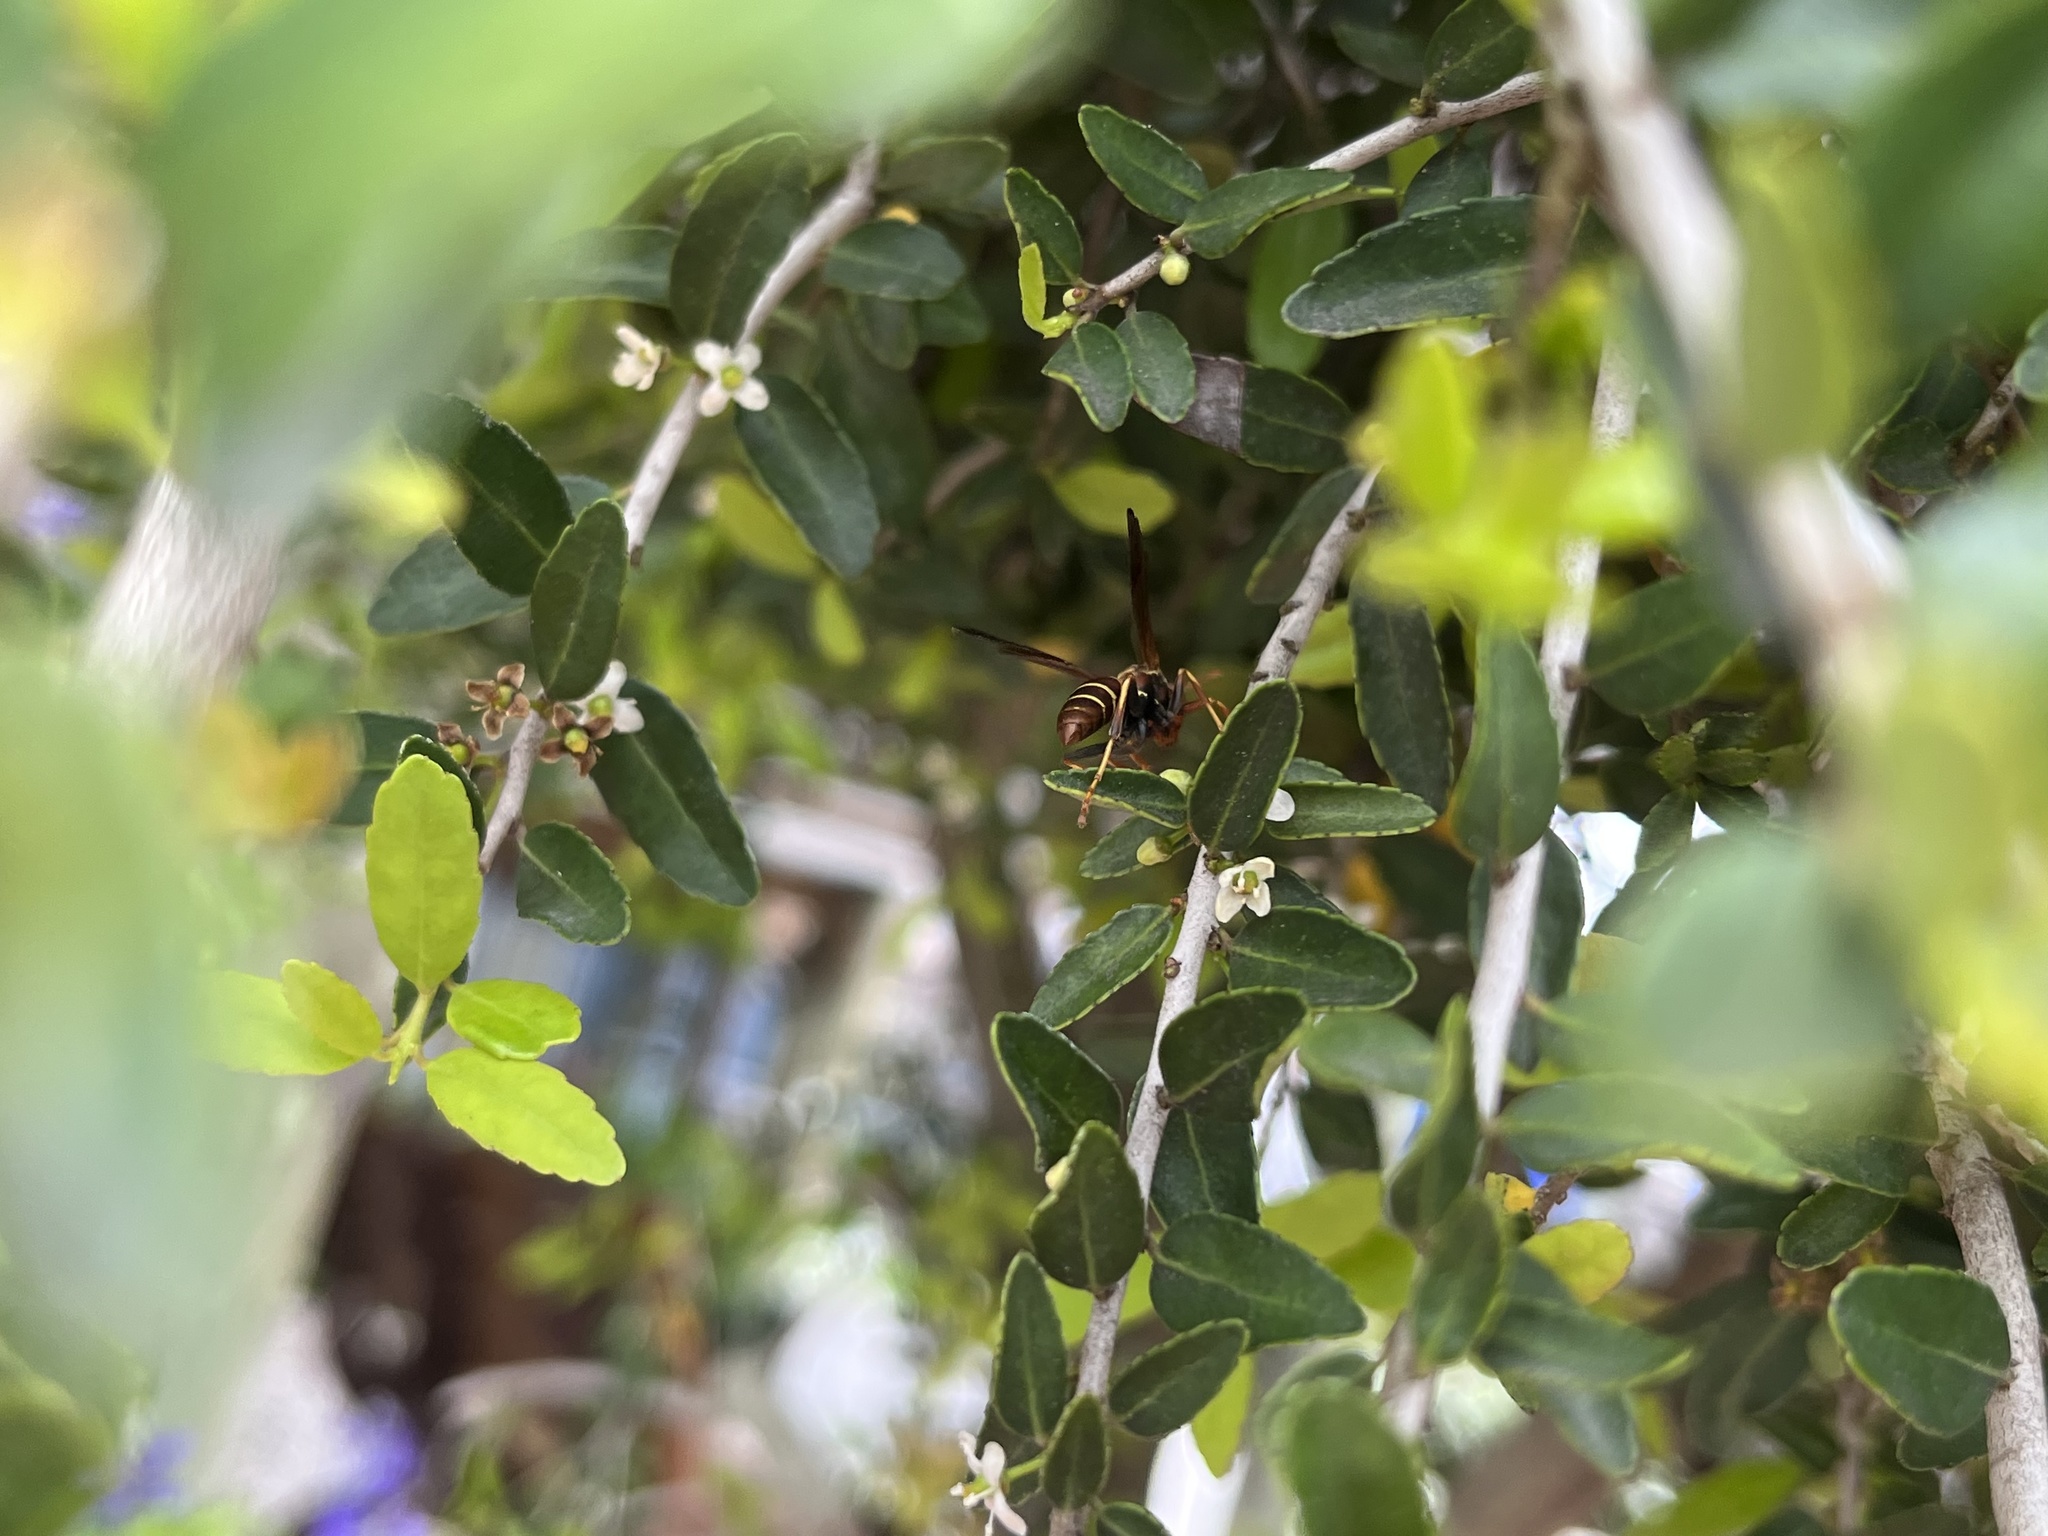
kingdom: Animalia
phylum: Arthropoda
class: Insecta
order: Hymenoptera
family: Eumenidae
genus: Polistes
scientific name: Polistes dorsalis
